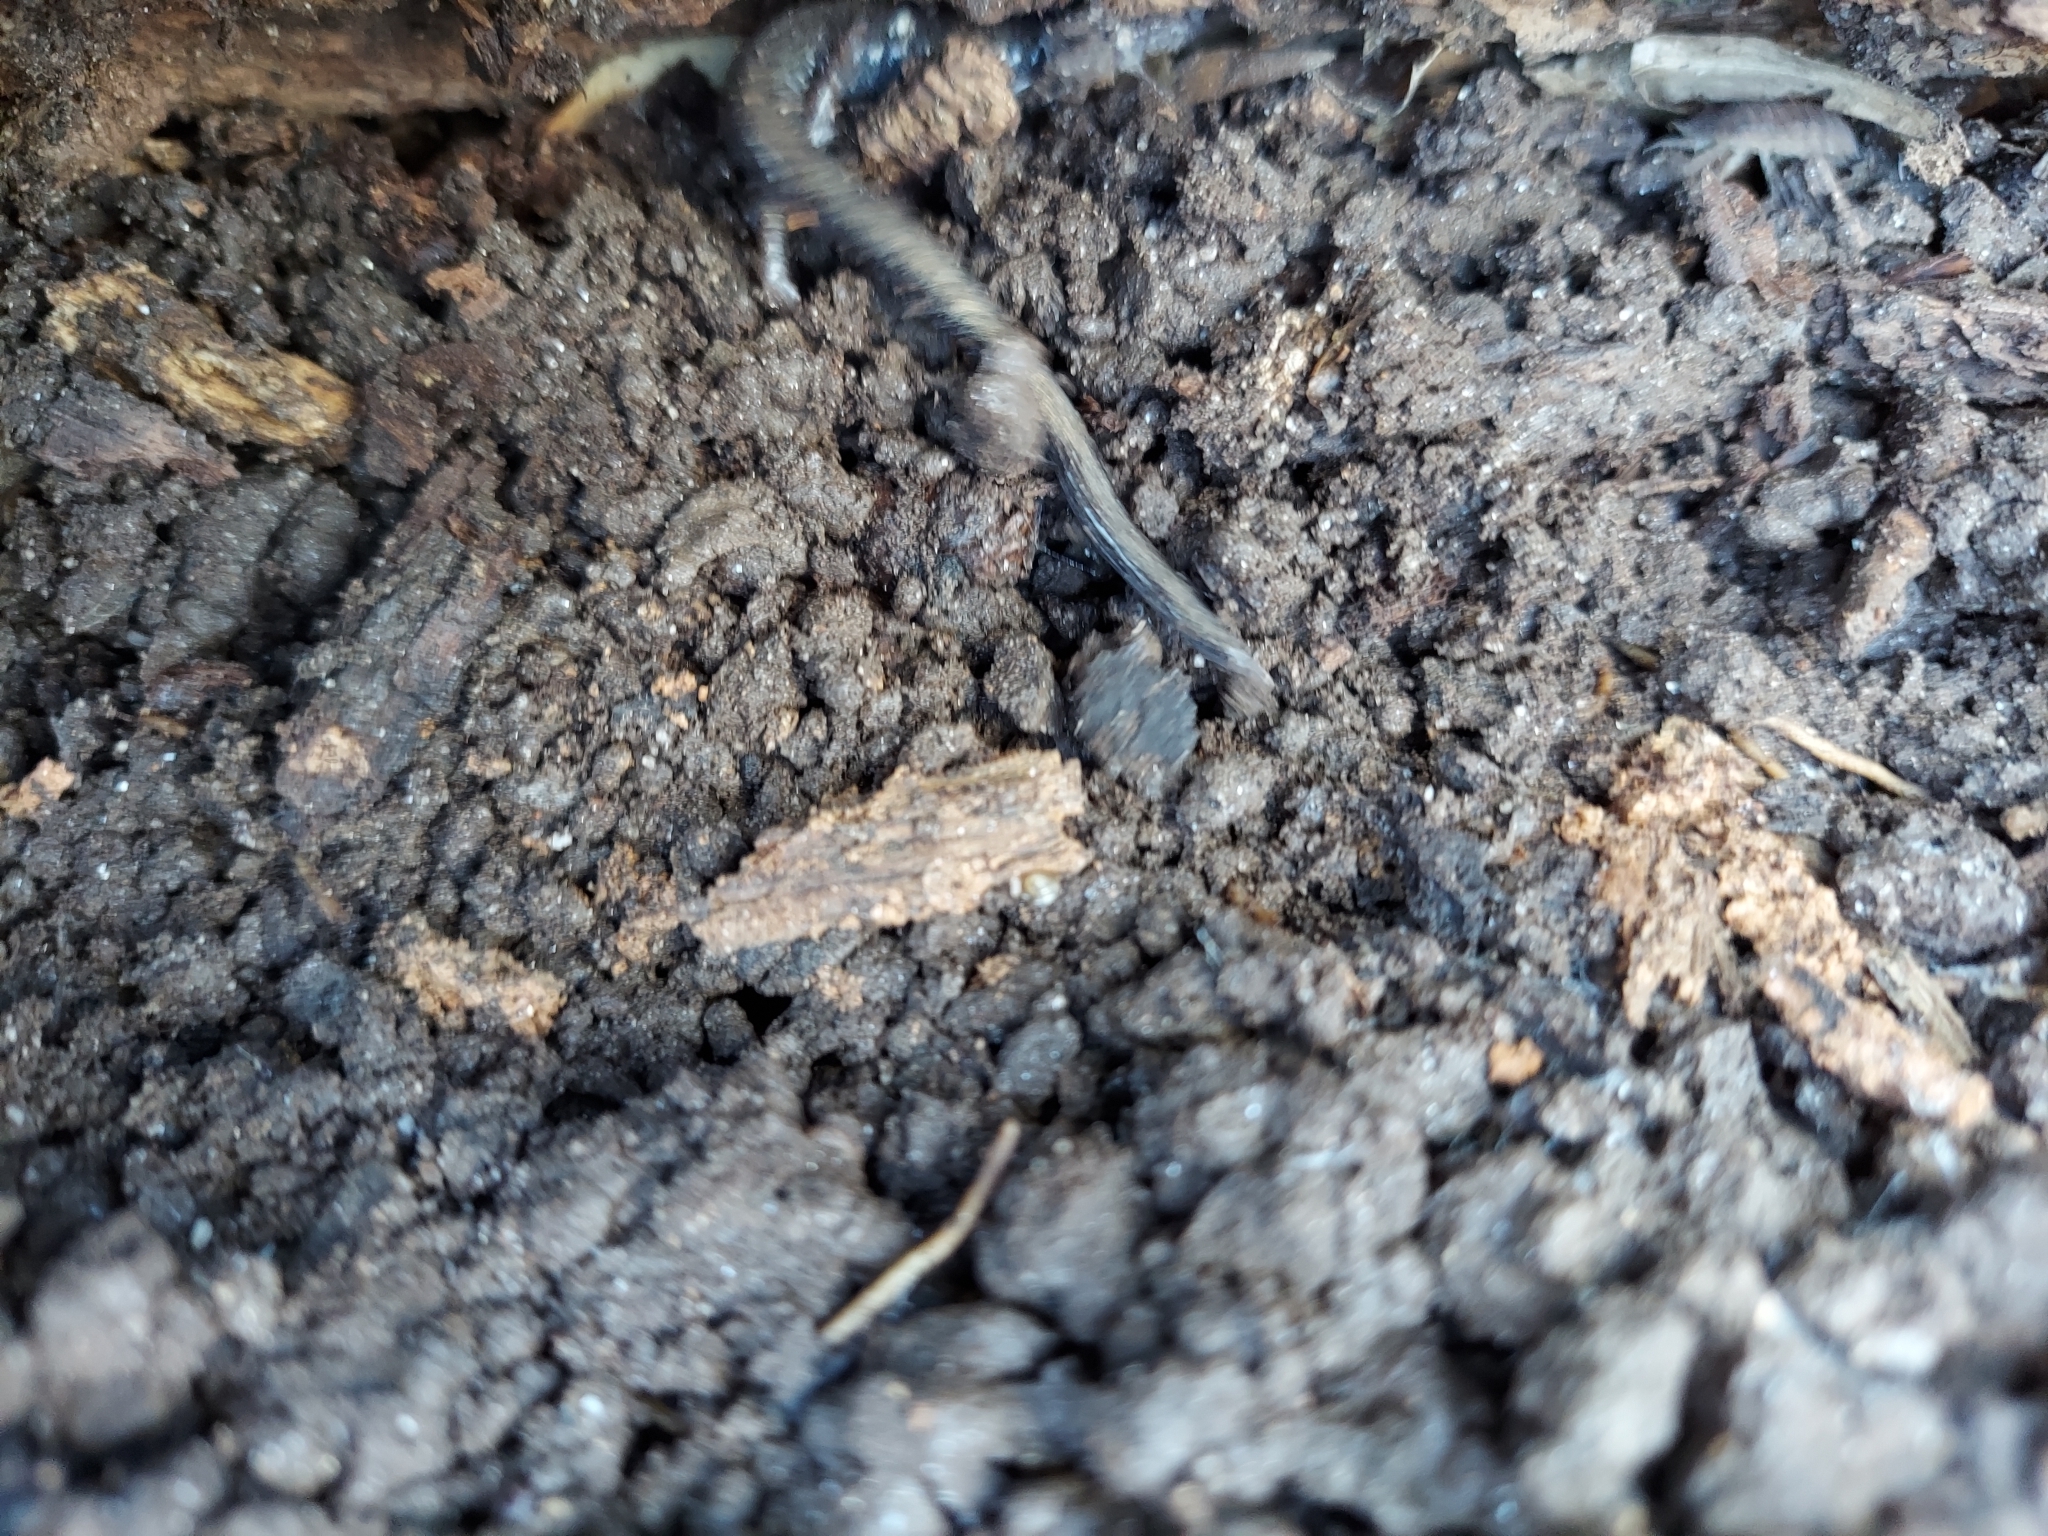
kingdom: Animalia
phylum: Chordata
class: Amphibia
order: Caudata
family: Plethodontidae
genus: Plethodon
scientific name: Plethodon cinereus
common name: Redback salamander
